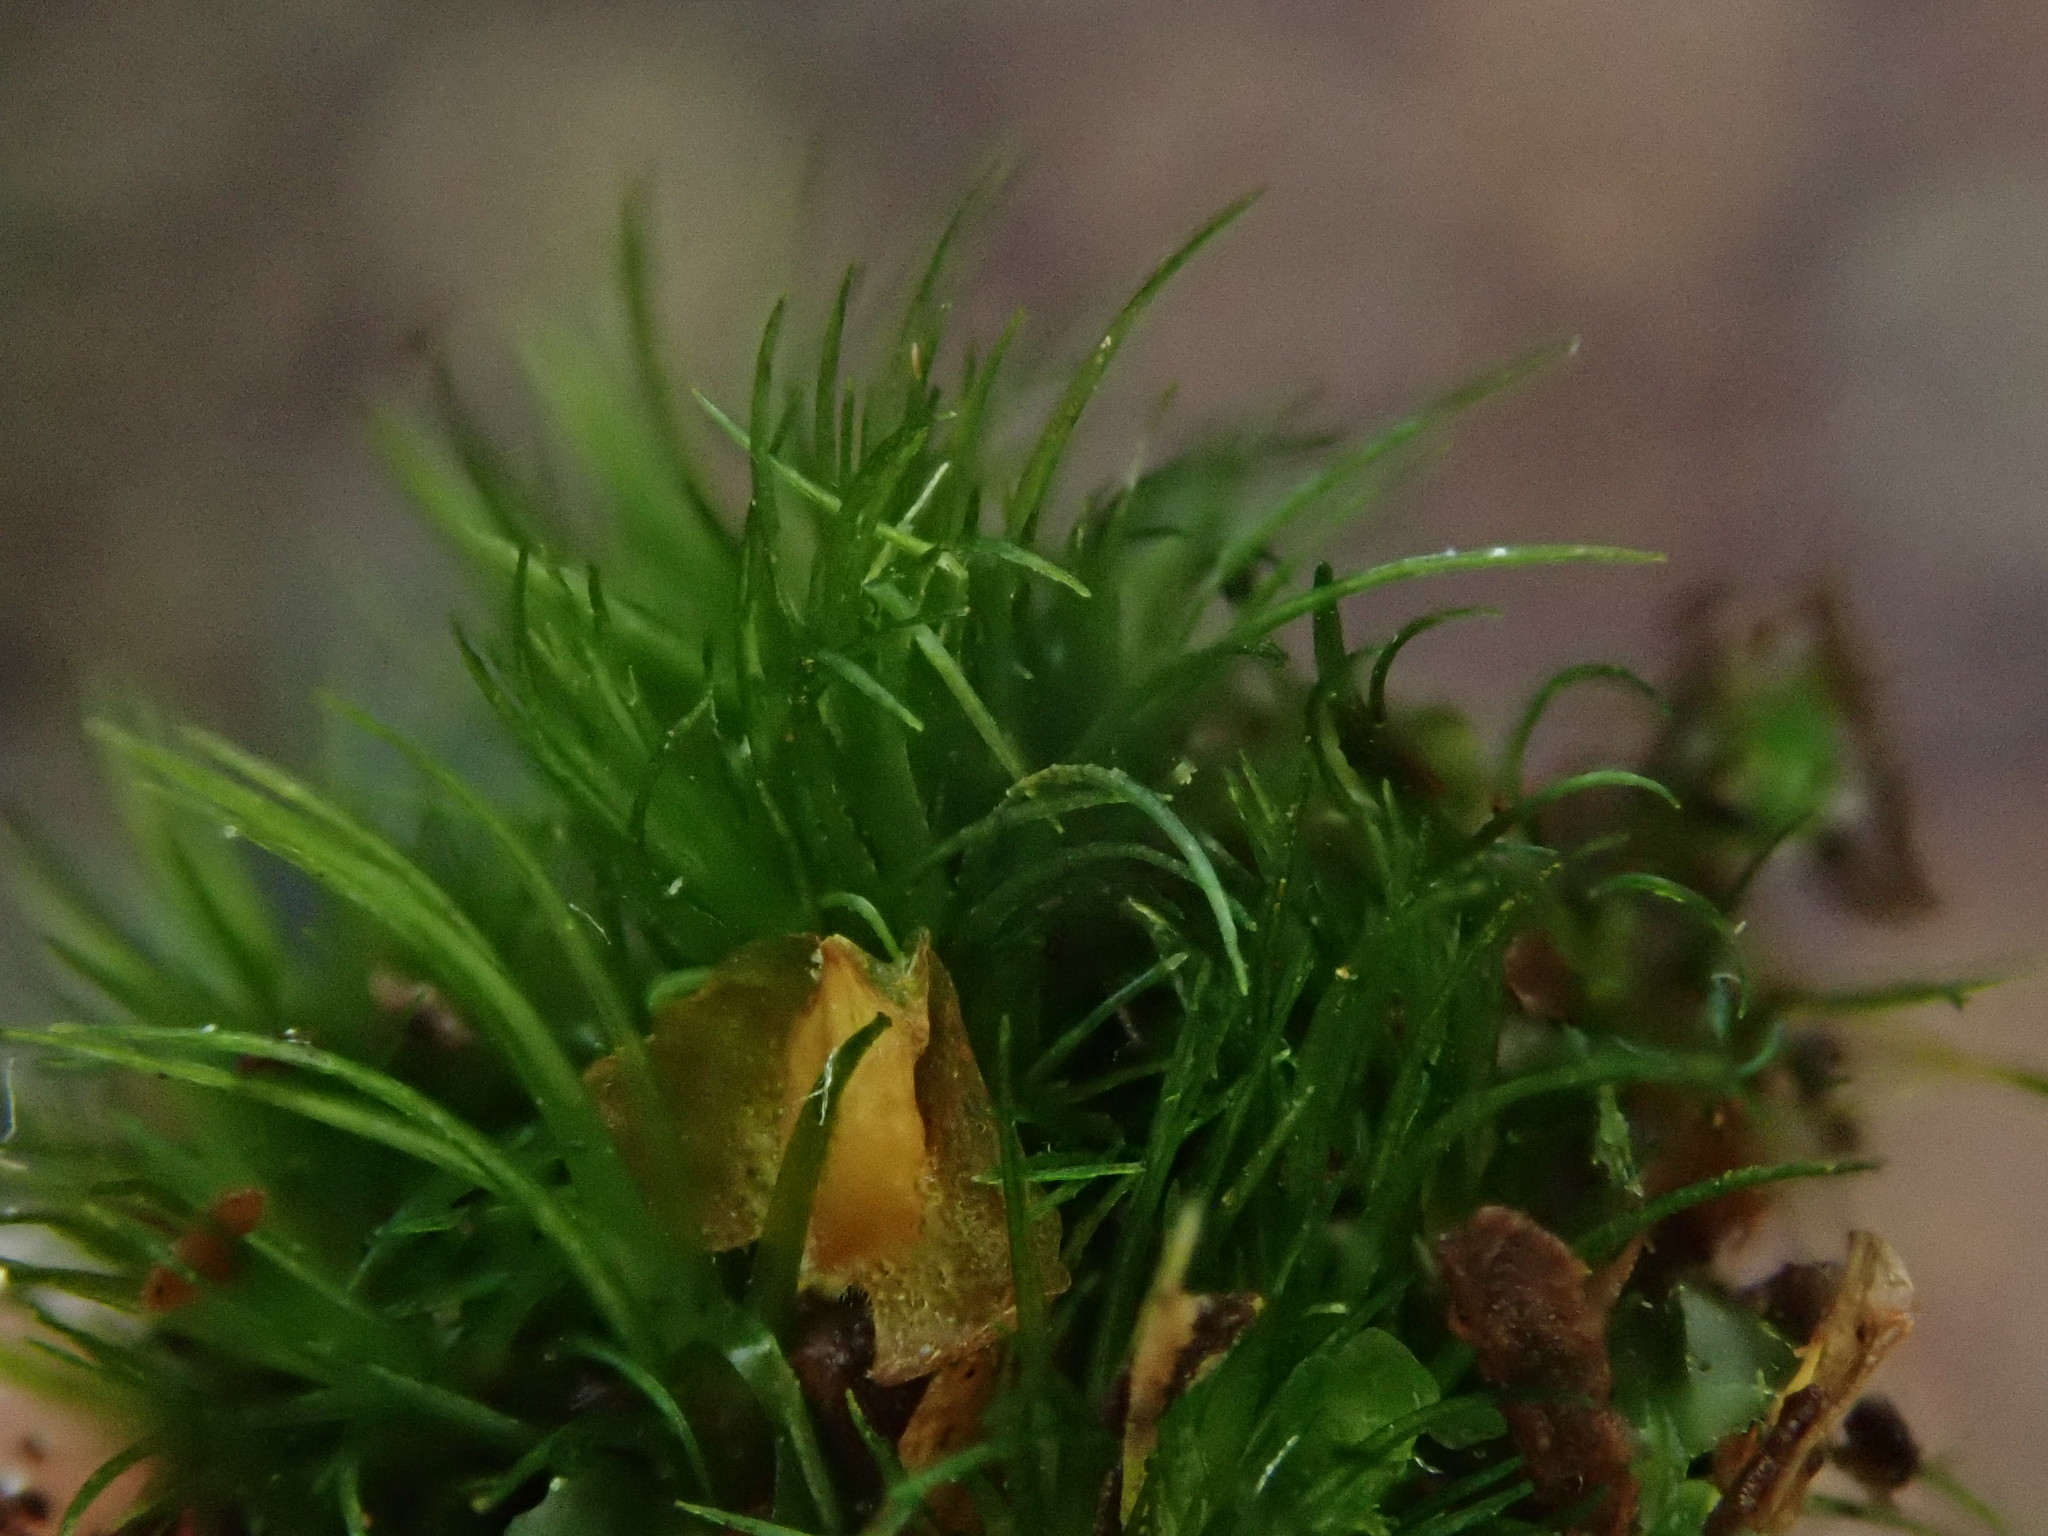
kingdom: Plantae
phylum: Bryophyta
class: Bryopsida
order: Dicranales
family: Dicranellaceae
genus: Dicranella
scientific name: Dicranella heteromalla
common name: Silky forklet moss
